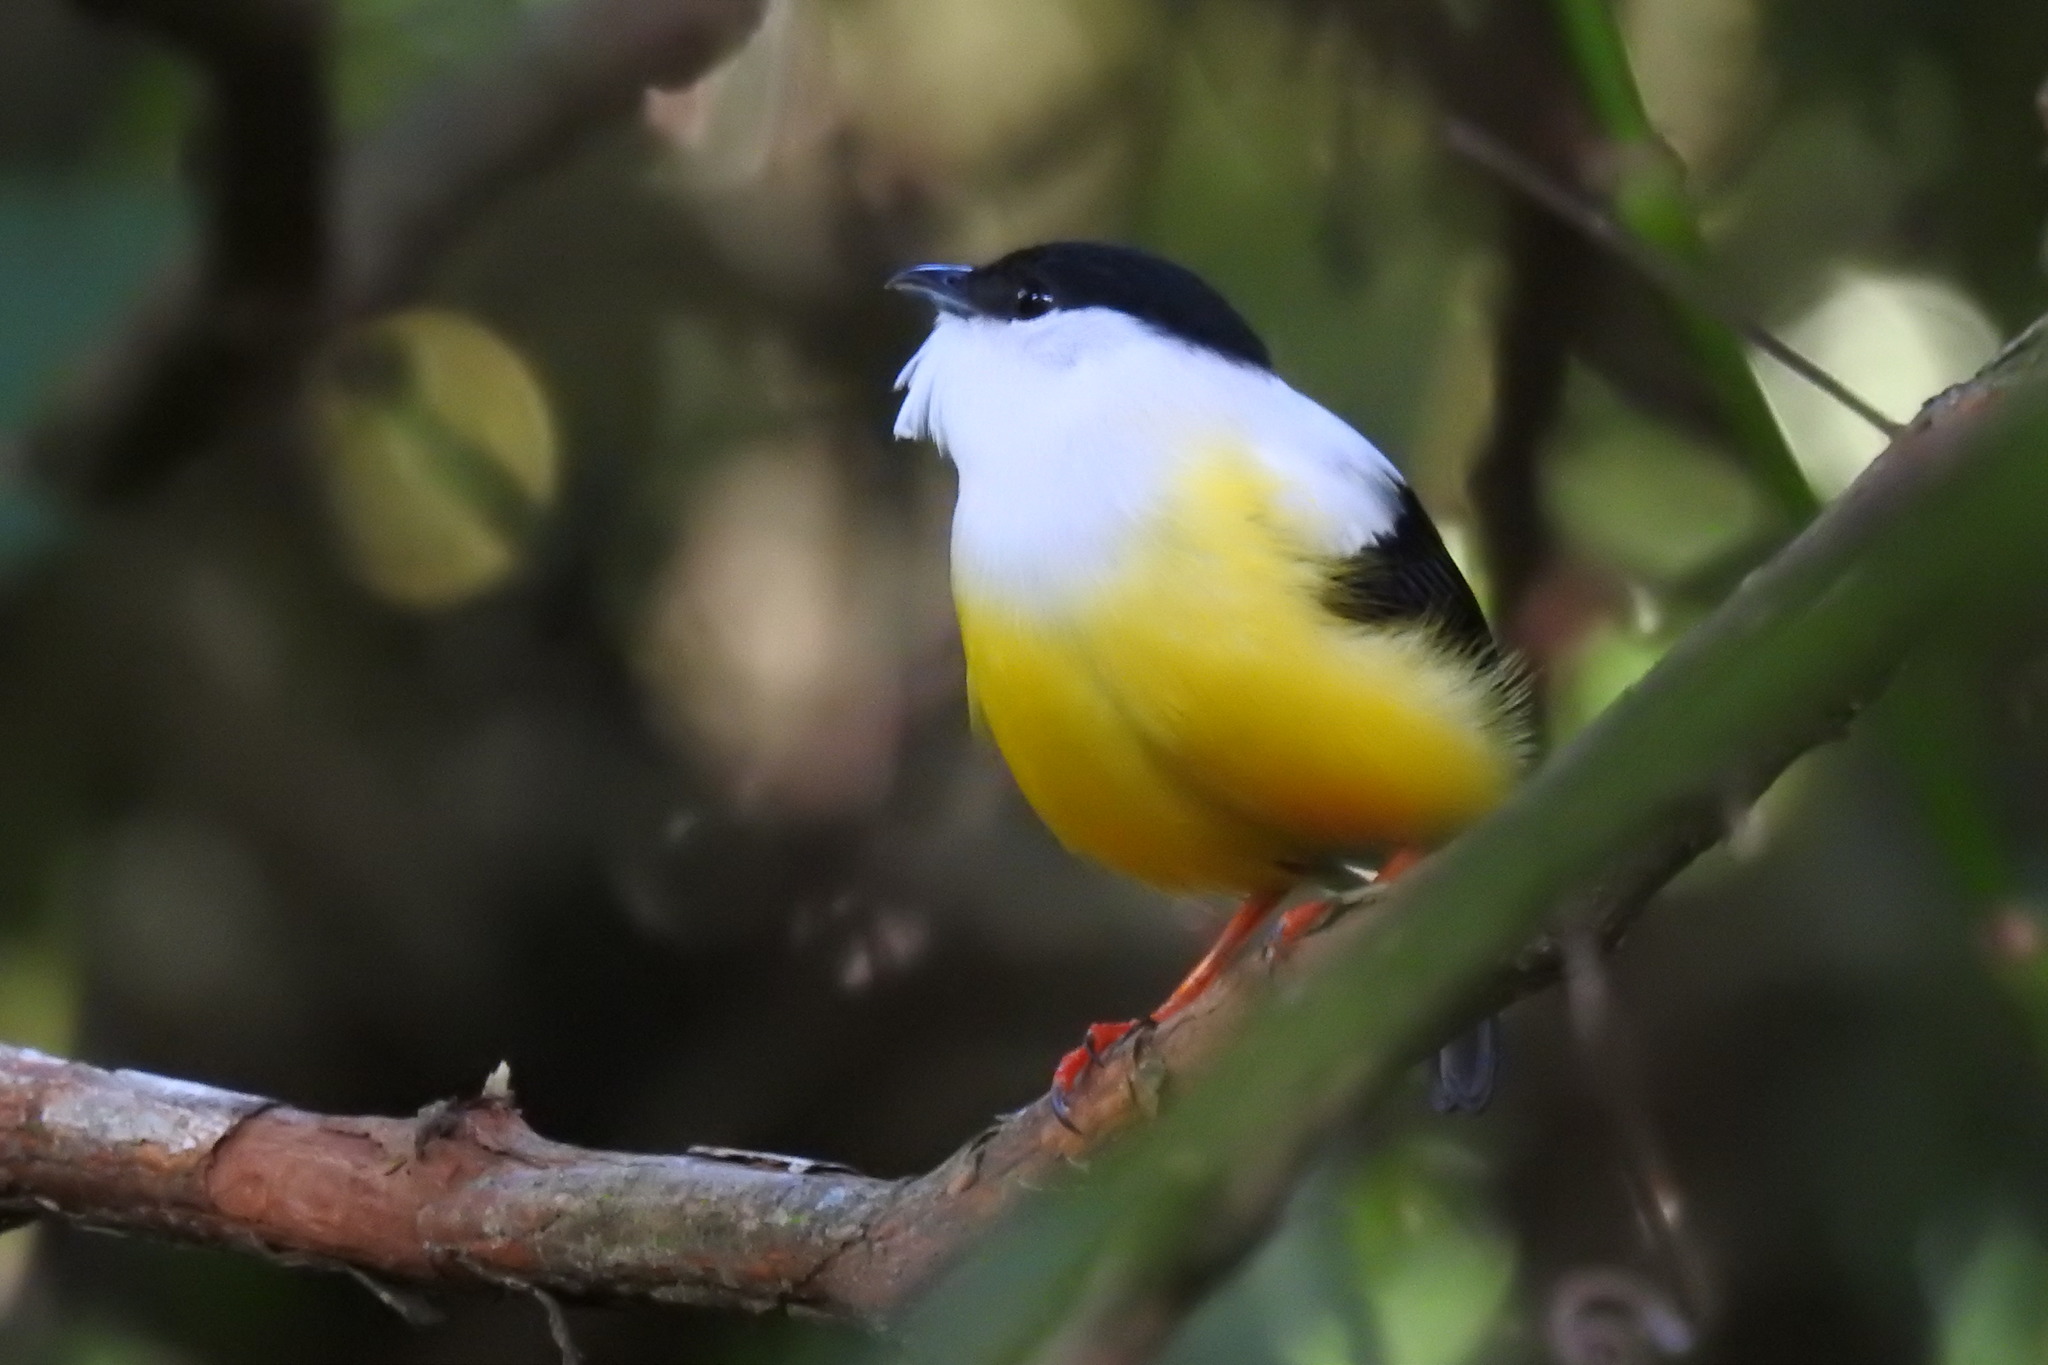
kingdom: Animalia
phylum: Chordata
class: Aves
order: Passeriformes
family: Pipridae
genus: Manacus
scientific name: Manacus candei
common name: White-collared manakin
